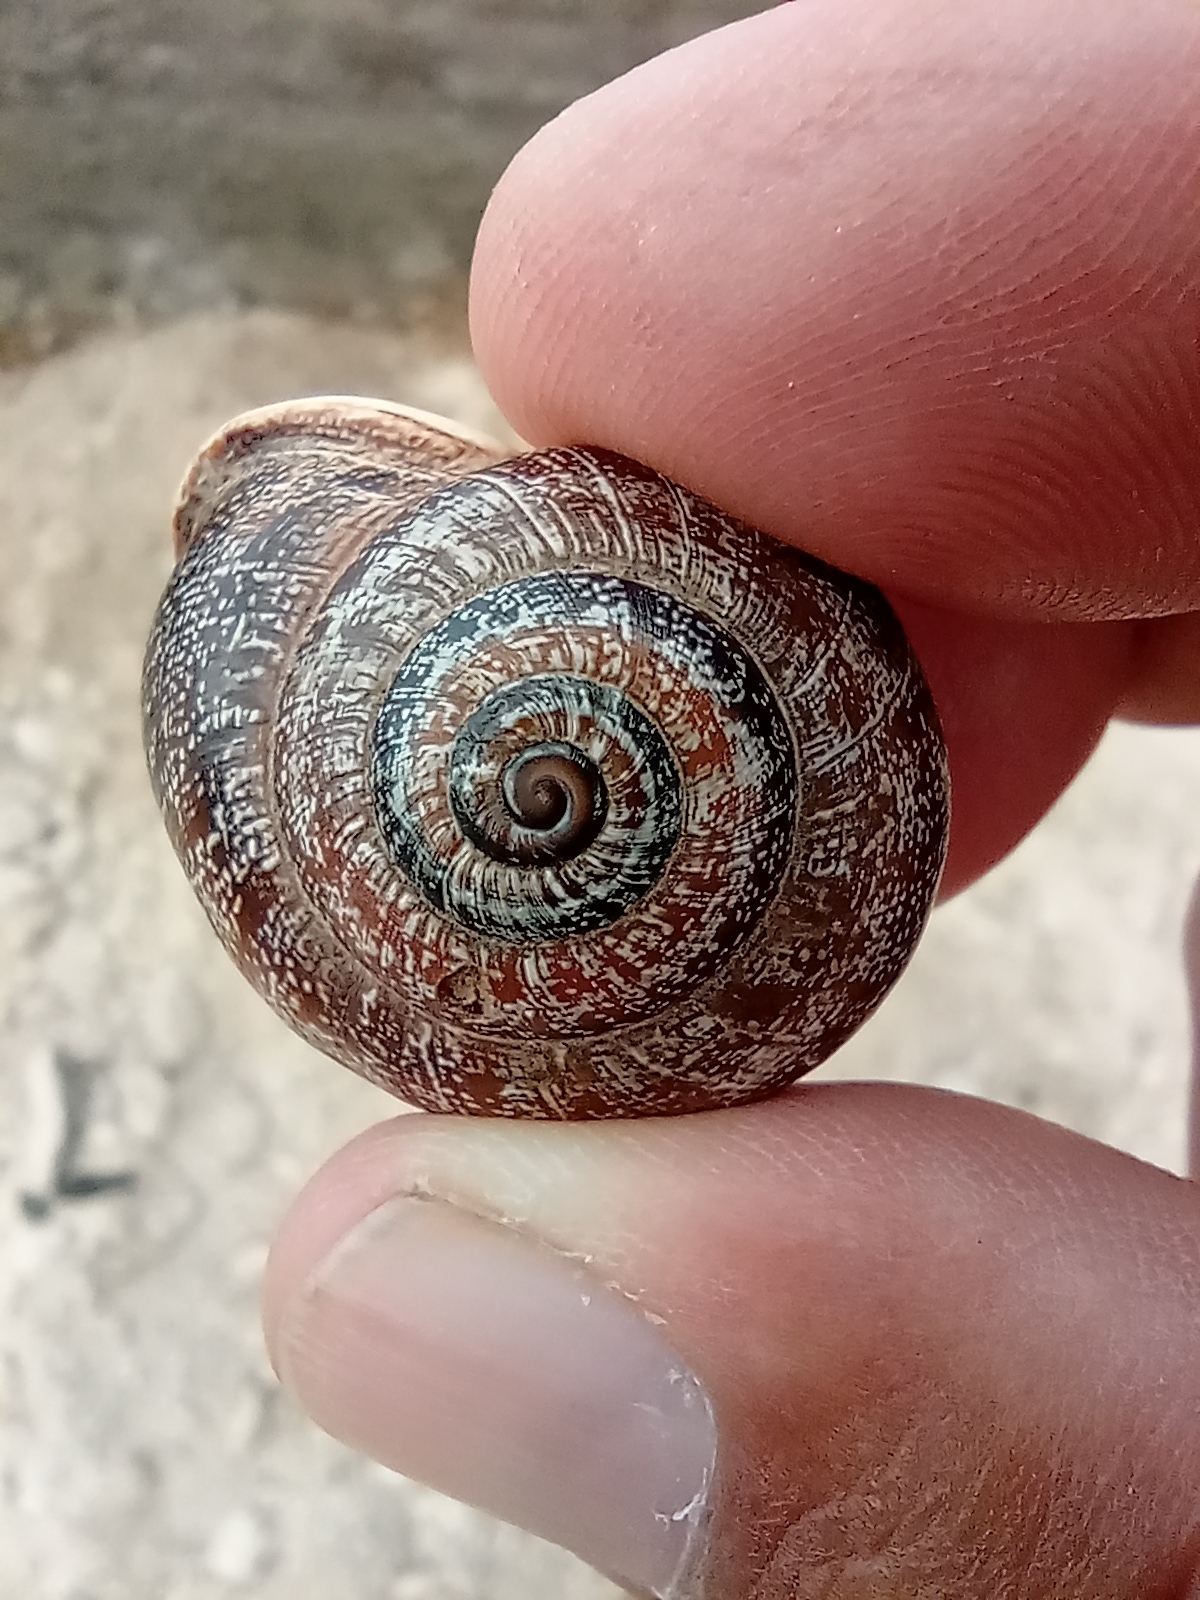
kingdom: Animalia
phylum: Mollusca
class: Gastropoda
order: Stylommatophora
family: Helicidae
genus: Otala
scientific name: Otala punctata
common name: Milk snail
